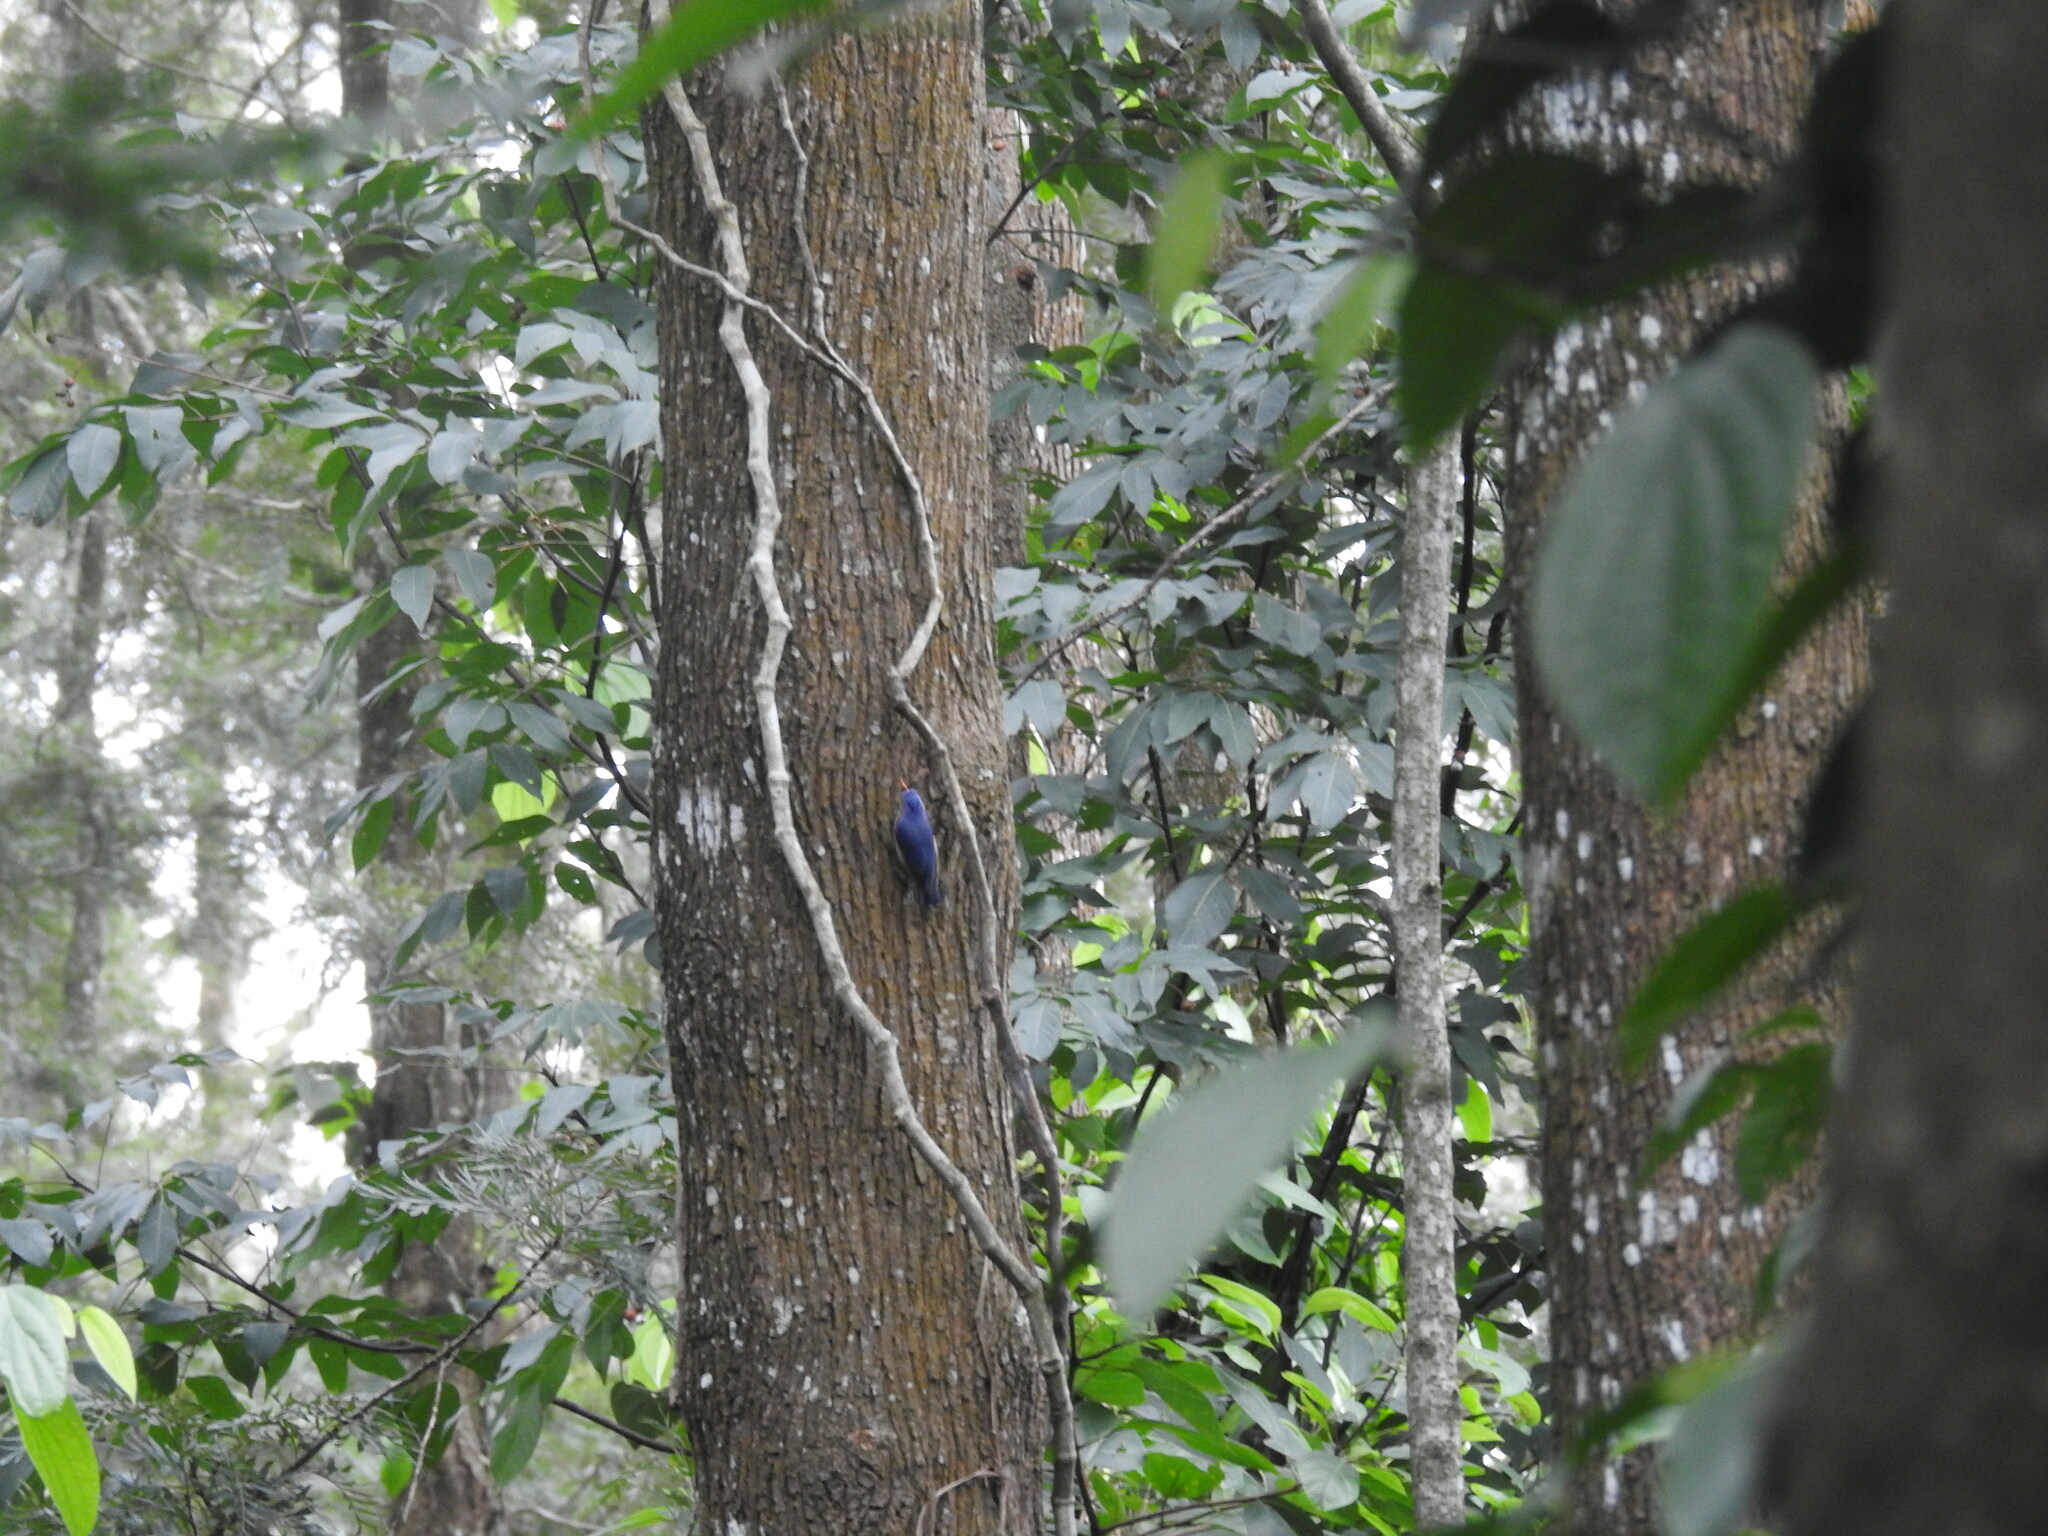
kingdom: Animalia
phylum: Chordata
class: Aves
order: Passeriformes
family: Sittidae
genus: Sitta
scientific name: Sitta frontalis
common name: Velvet-fronted nuthatch
